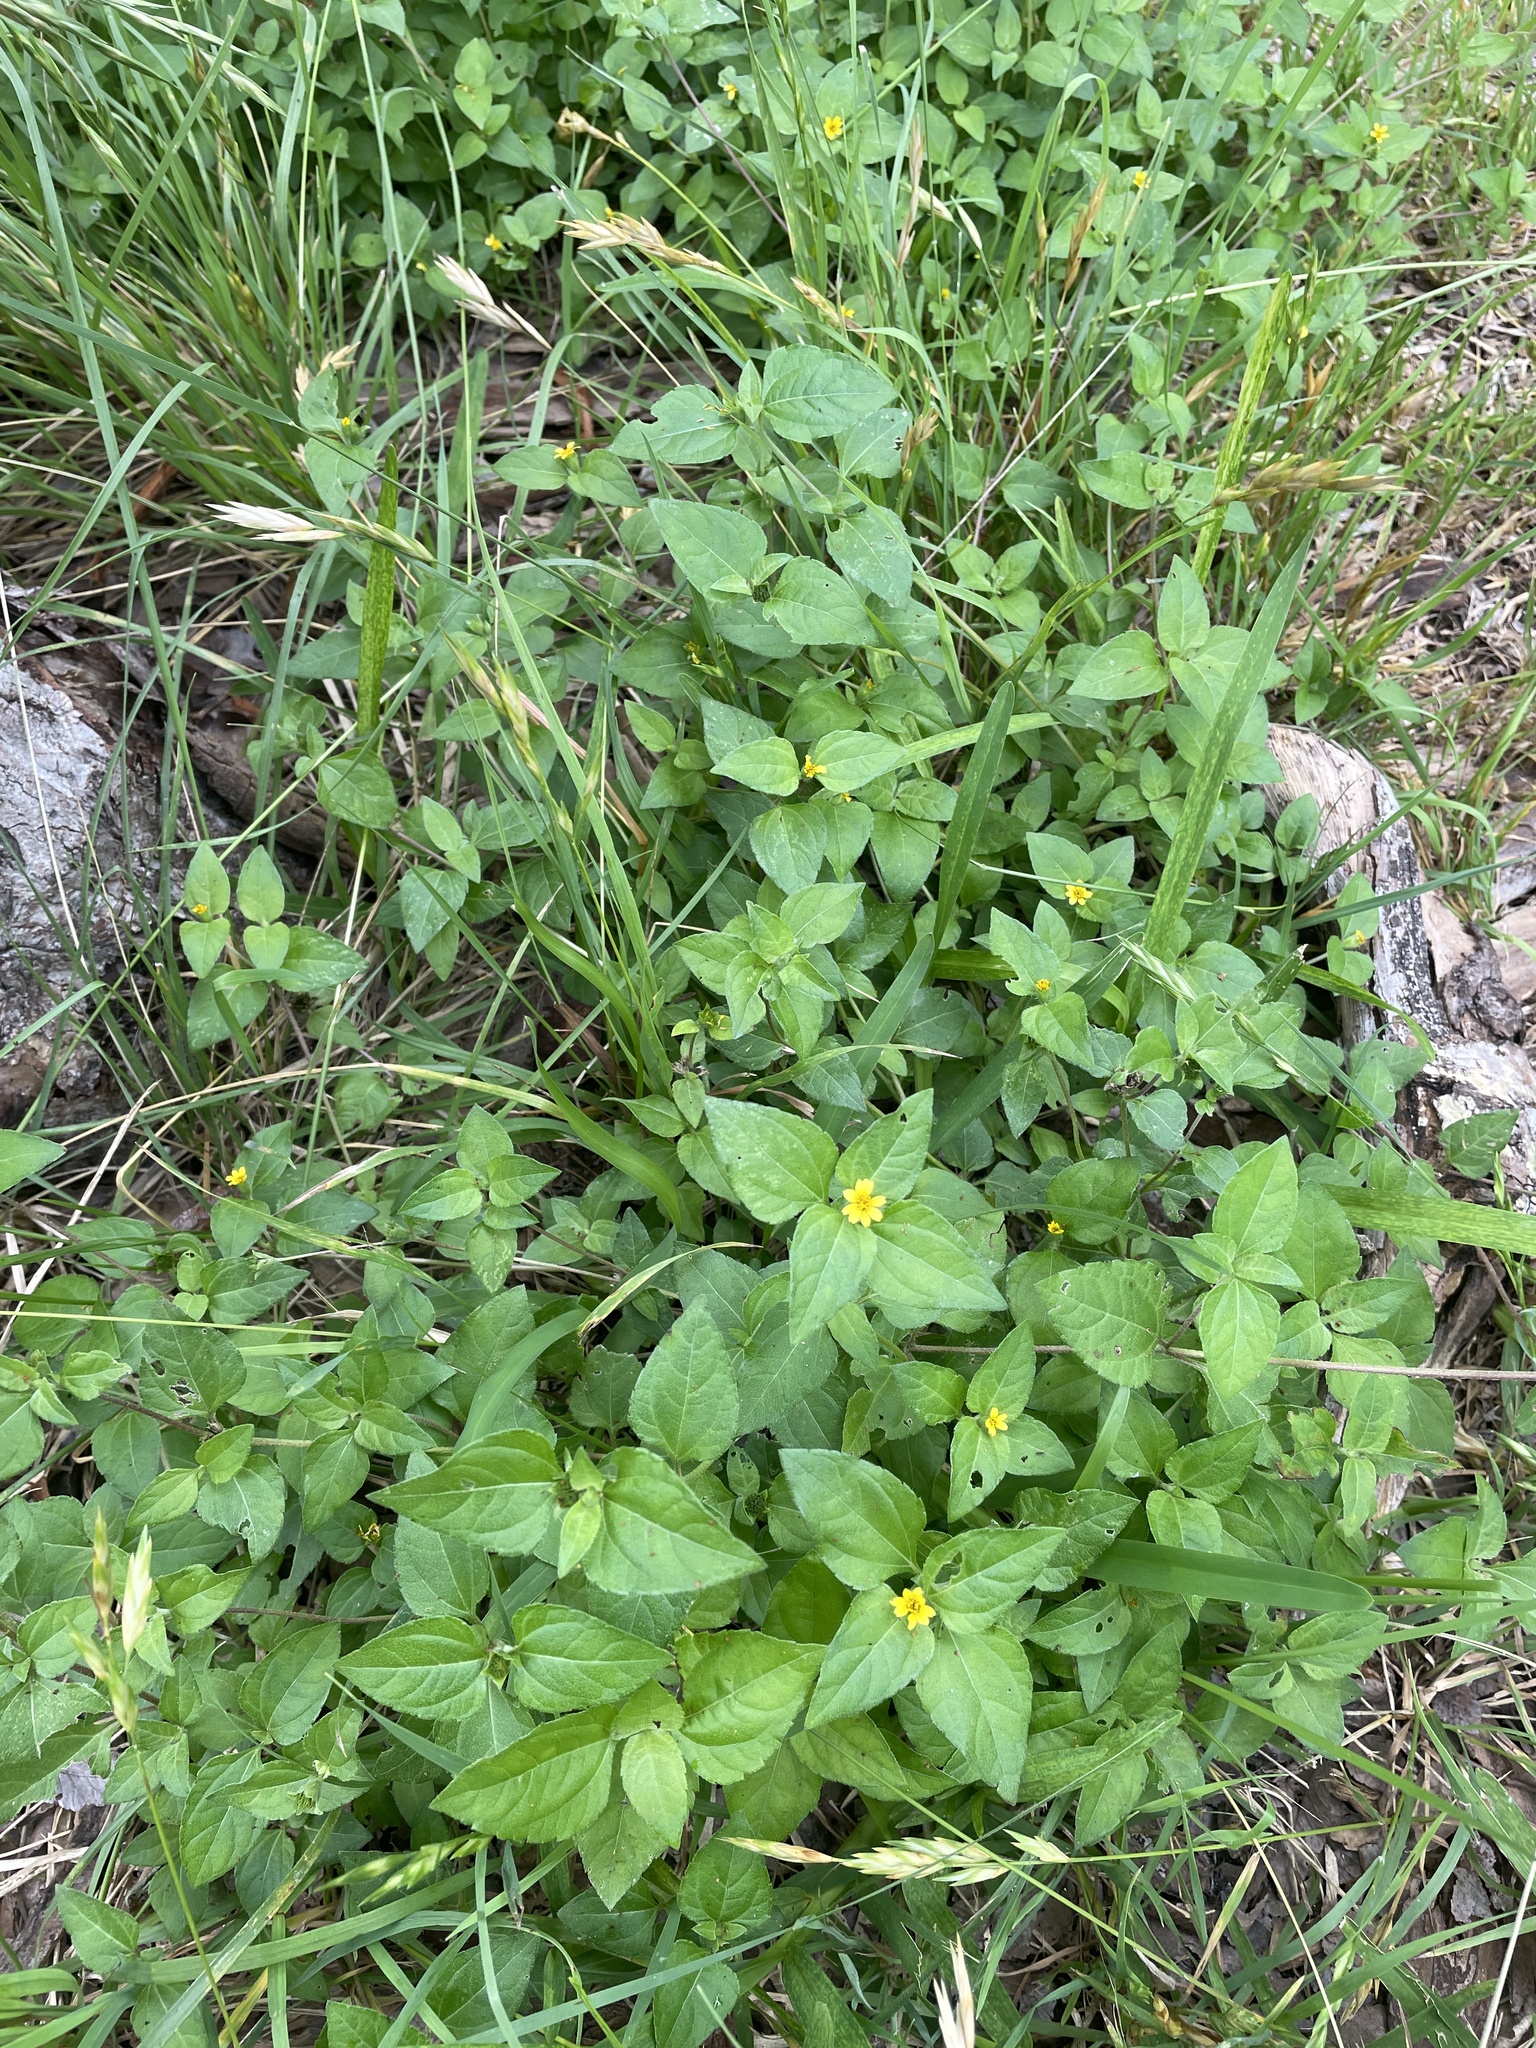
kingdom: Plantae
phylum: Tracheophyta
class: Magnoliopsida
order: Asterales
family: Asteraceae
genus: Calyptocarpus
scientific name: Calyptocarpus vialis
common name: Straggler daisy
